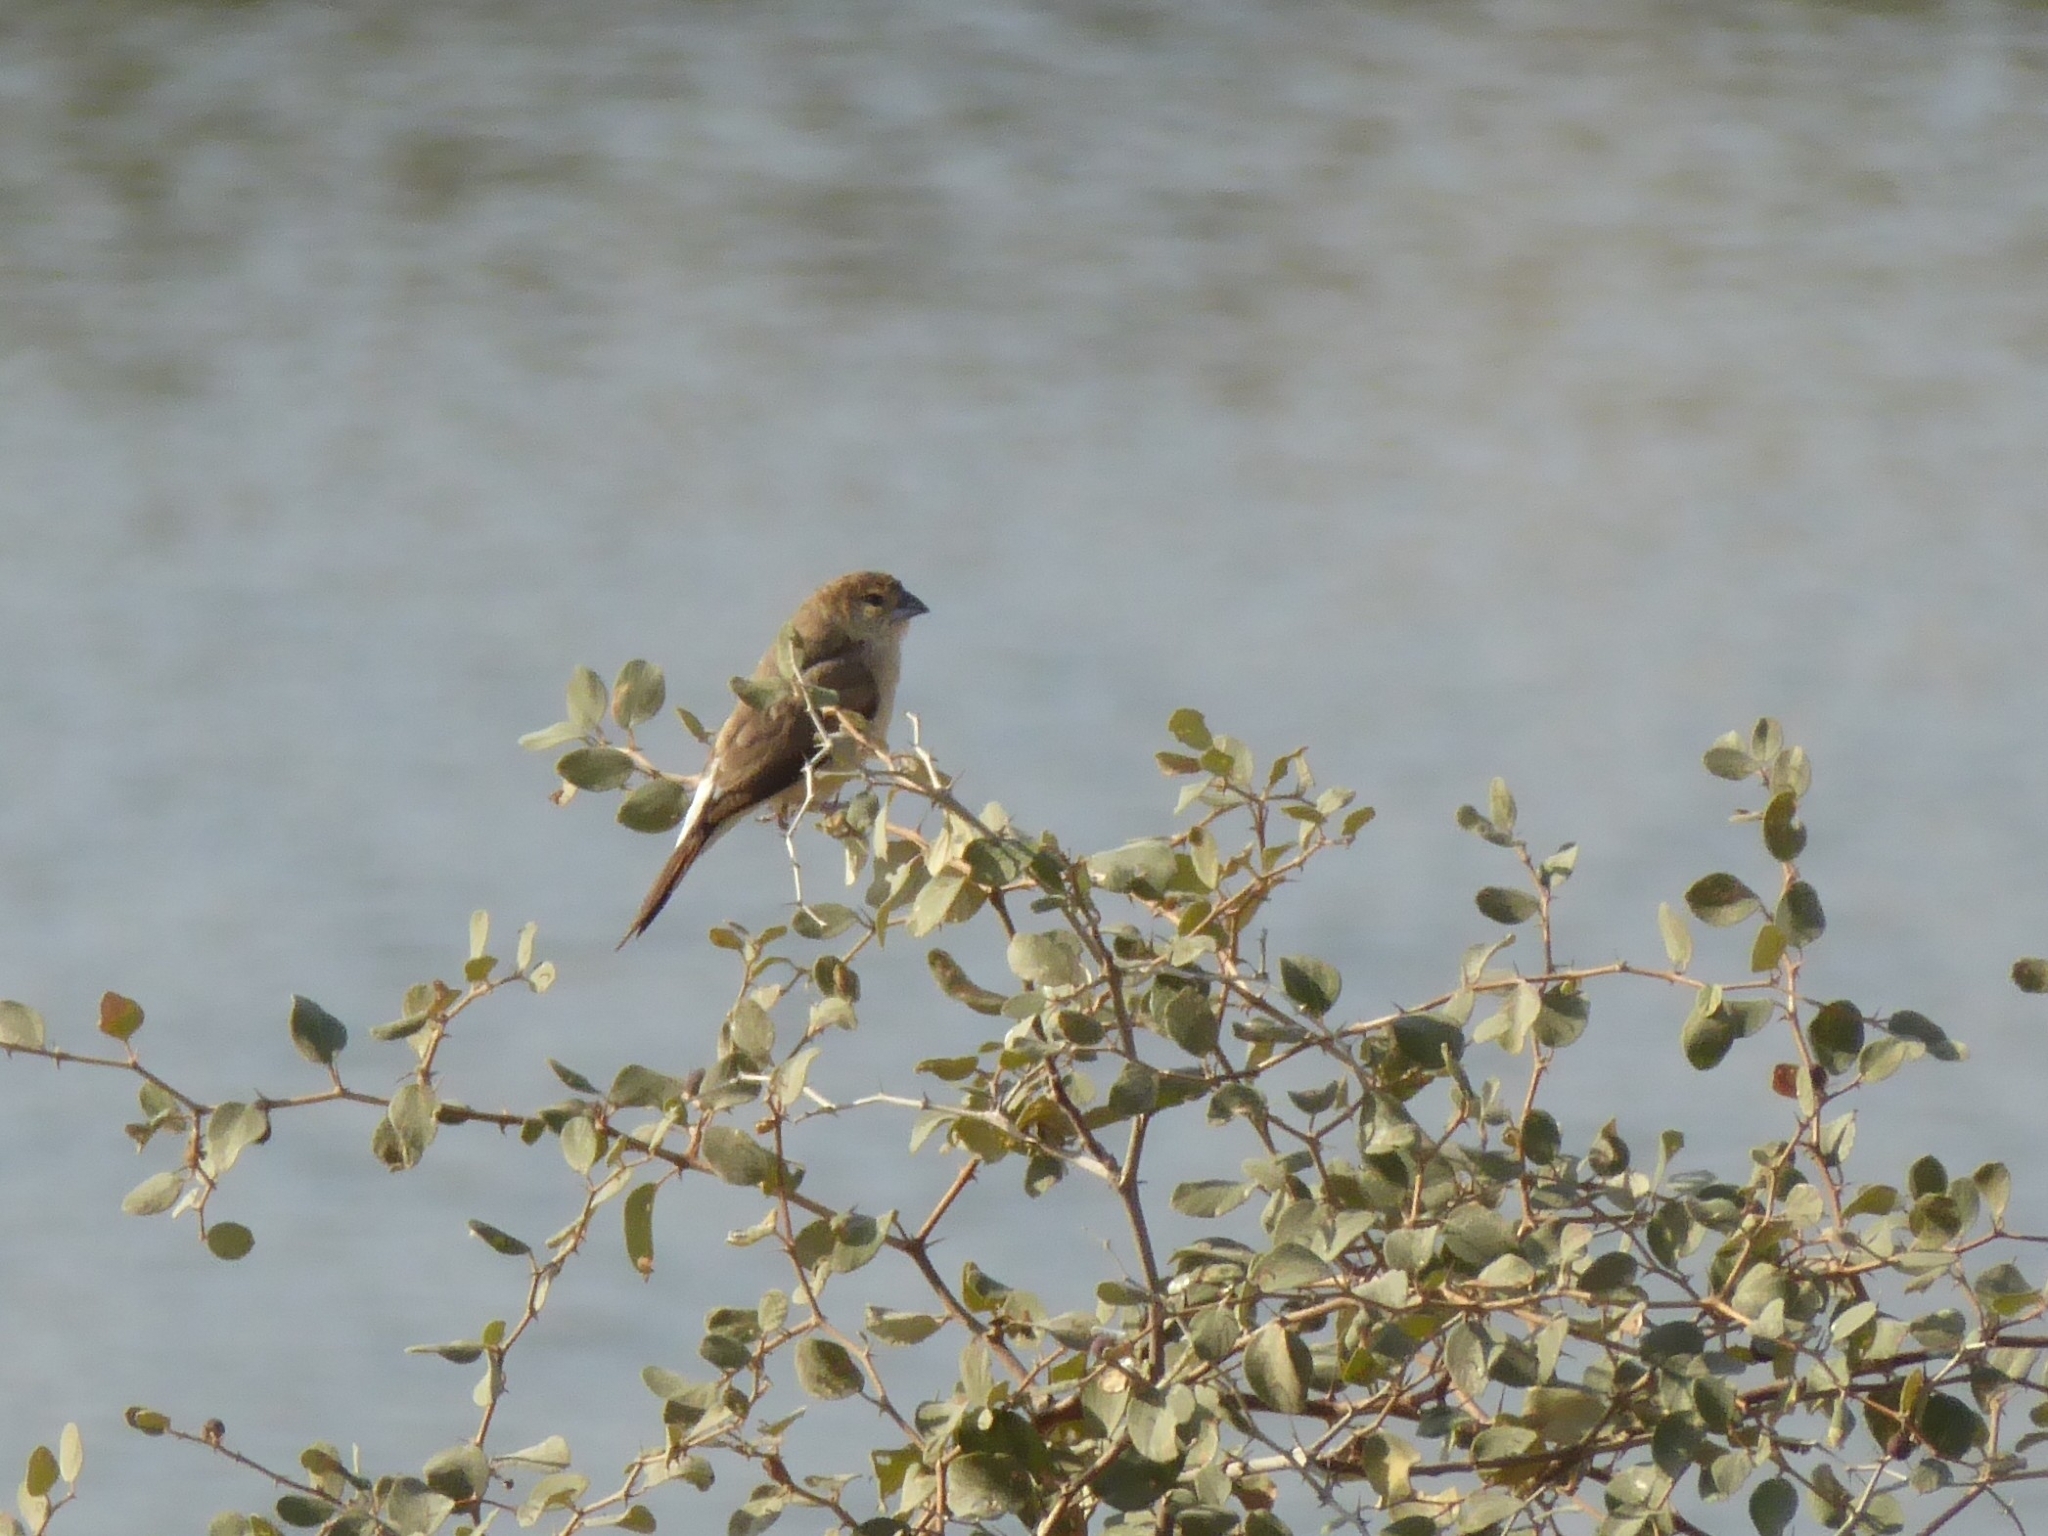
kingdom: Animalia
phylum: Chordata
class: Aves
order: Passeriformes
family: Estrildidae
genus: Euodice
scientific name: Euodice malabarica
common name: Indian silverbill
